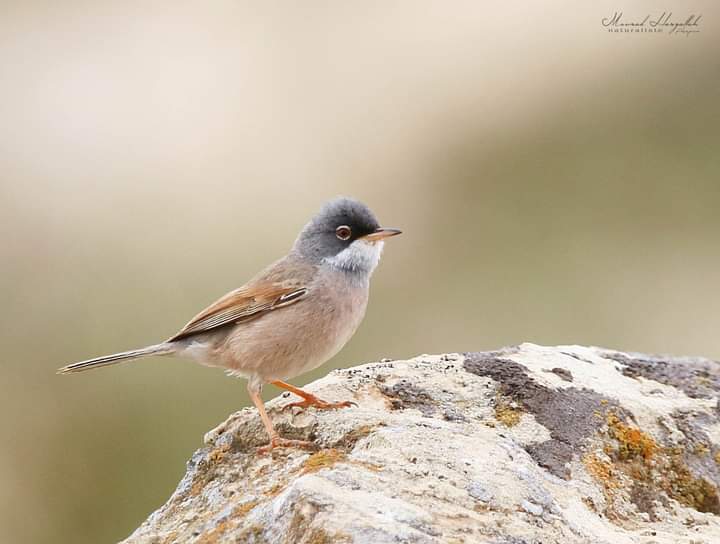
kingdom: Animalia
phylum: Chordata
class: Aves
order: Passeriformes
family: Sylviidae
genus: Sylvia
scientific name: Sylvia conspicillata
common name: Spectacled warbler
